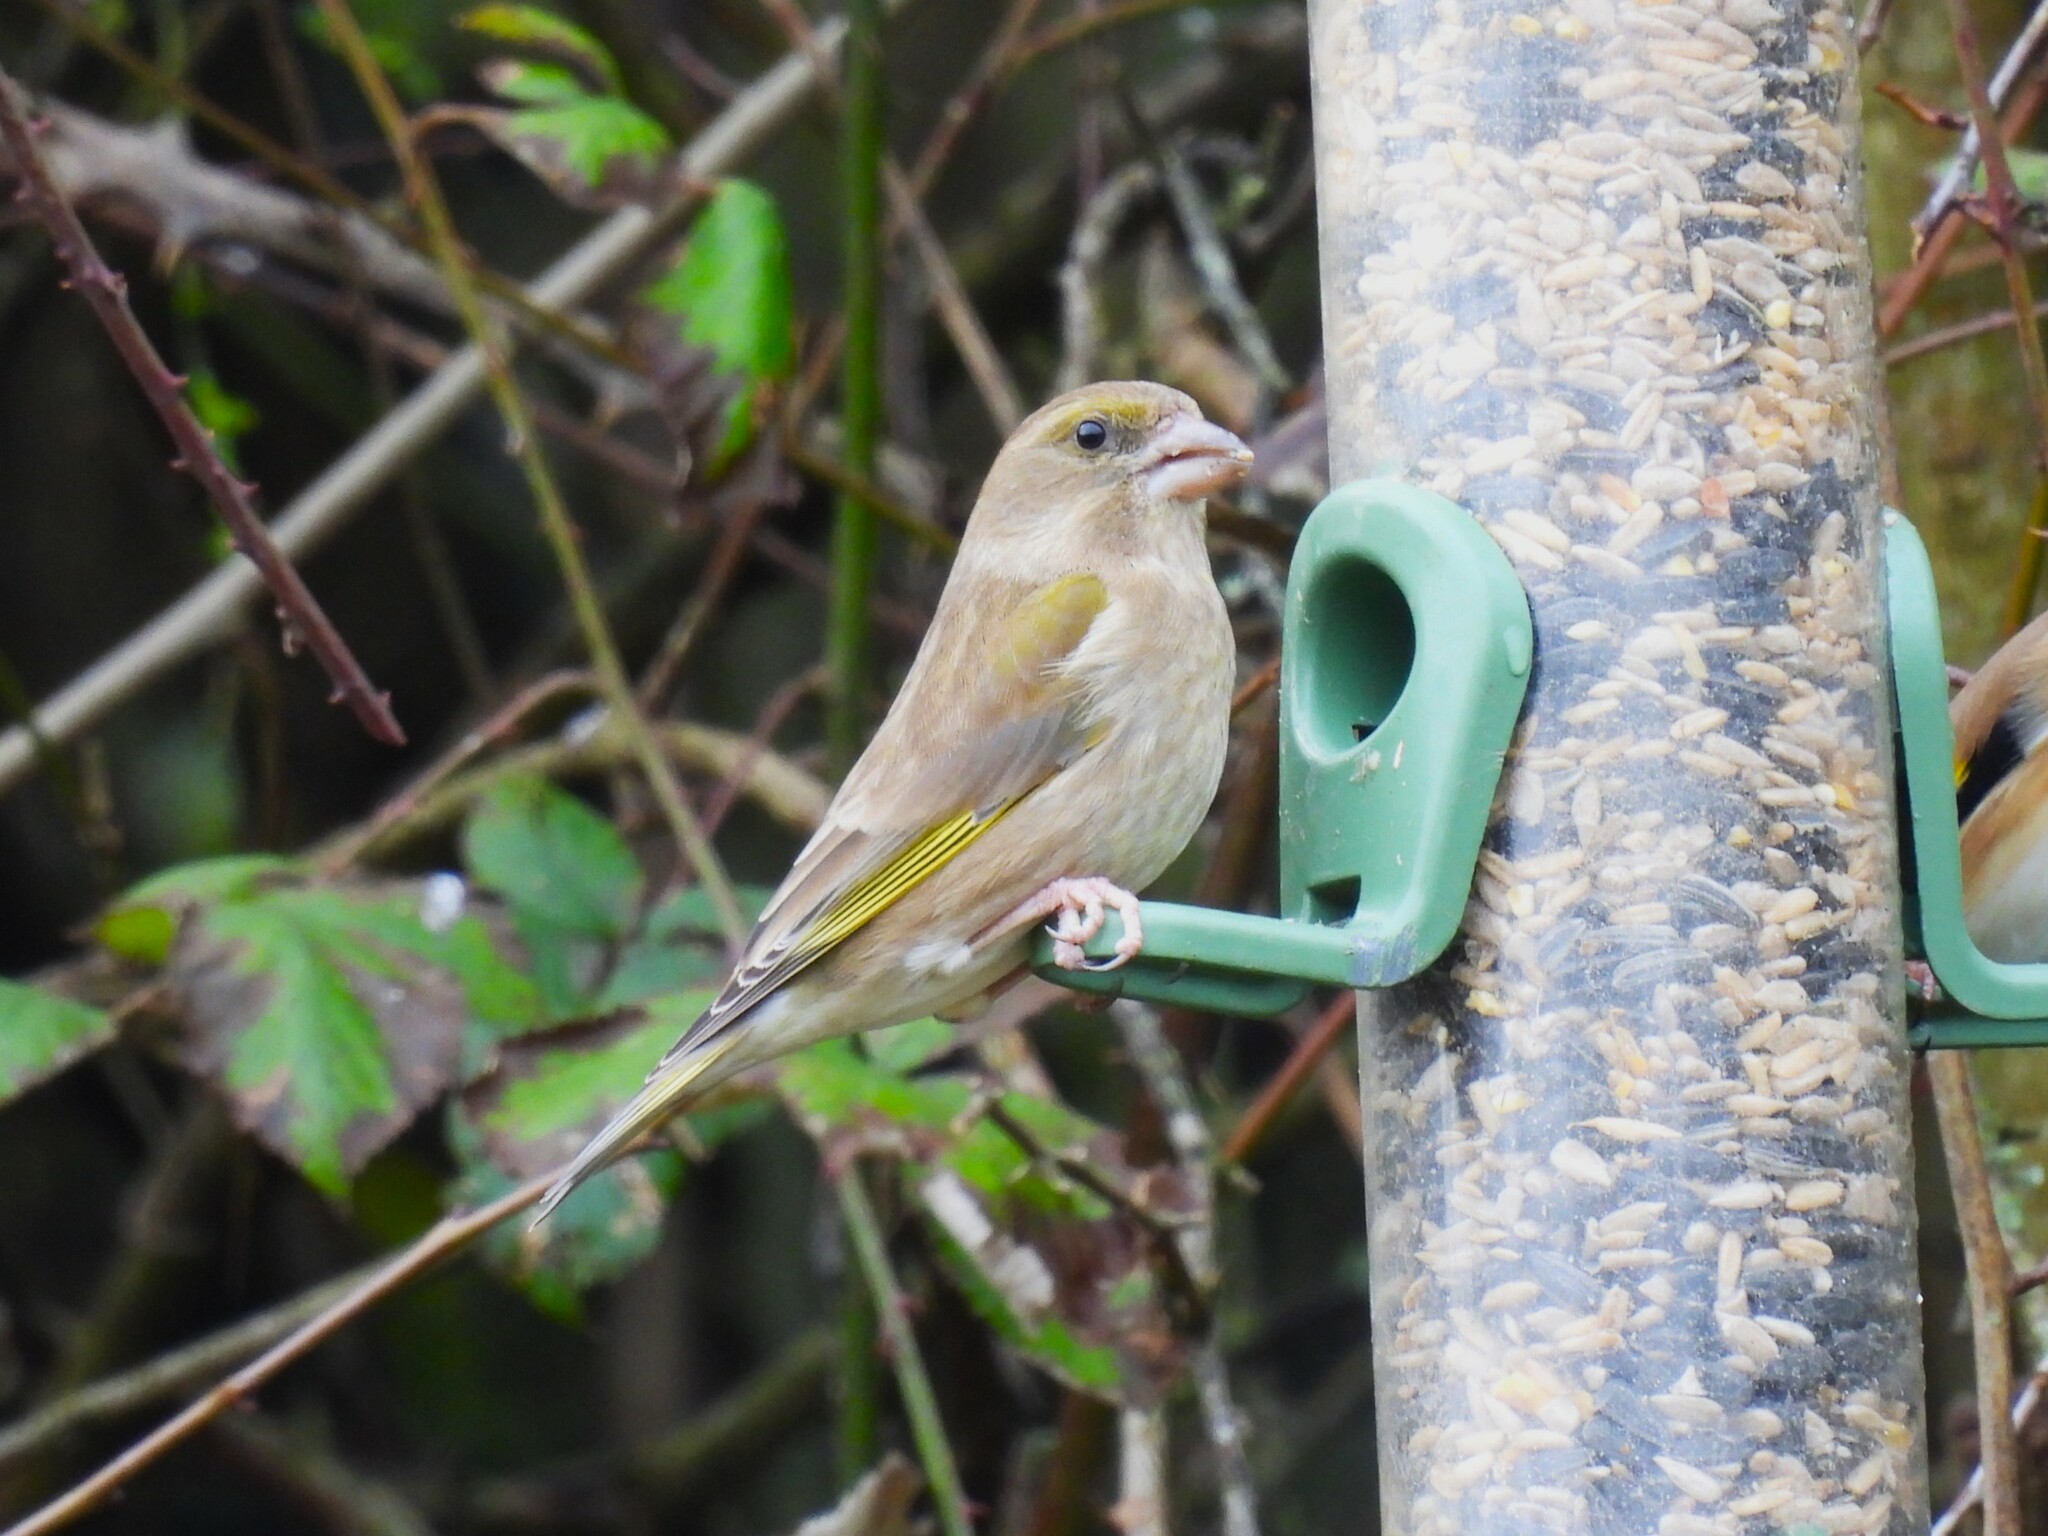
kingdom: Plantae
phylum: Tracheophyta
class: Liliopsida
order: Poales
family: Poaceae
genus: Chloris
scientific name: Chloris chloris
